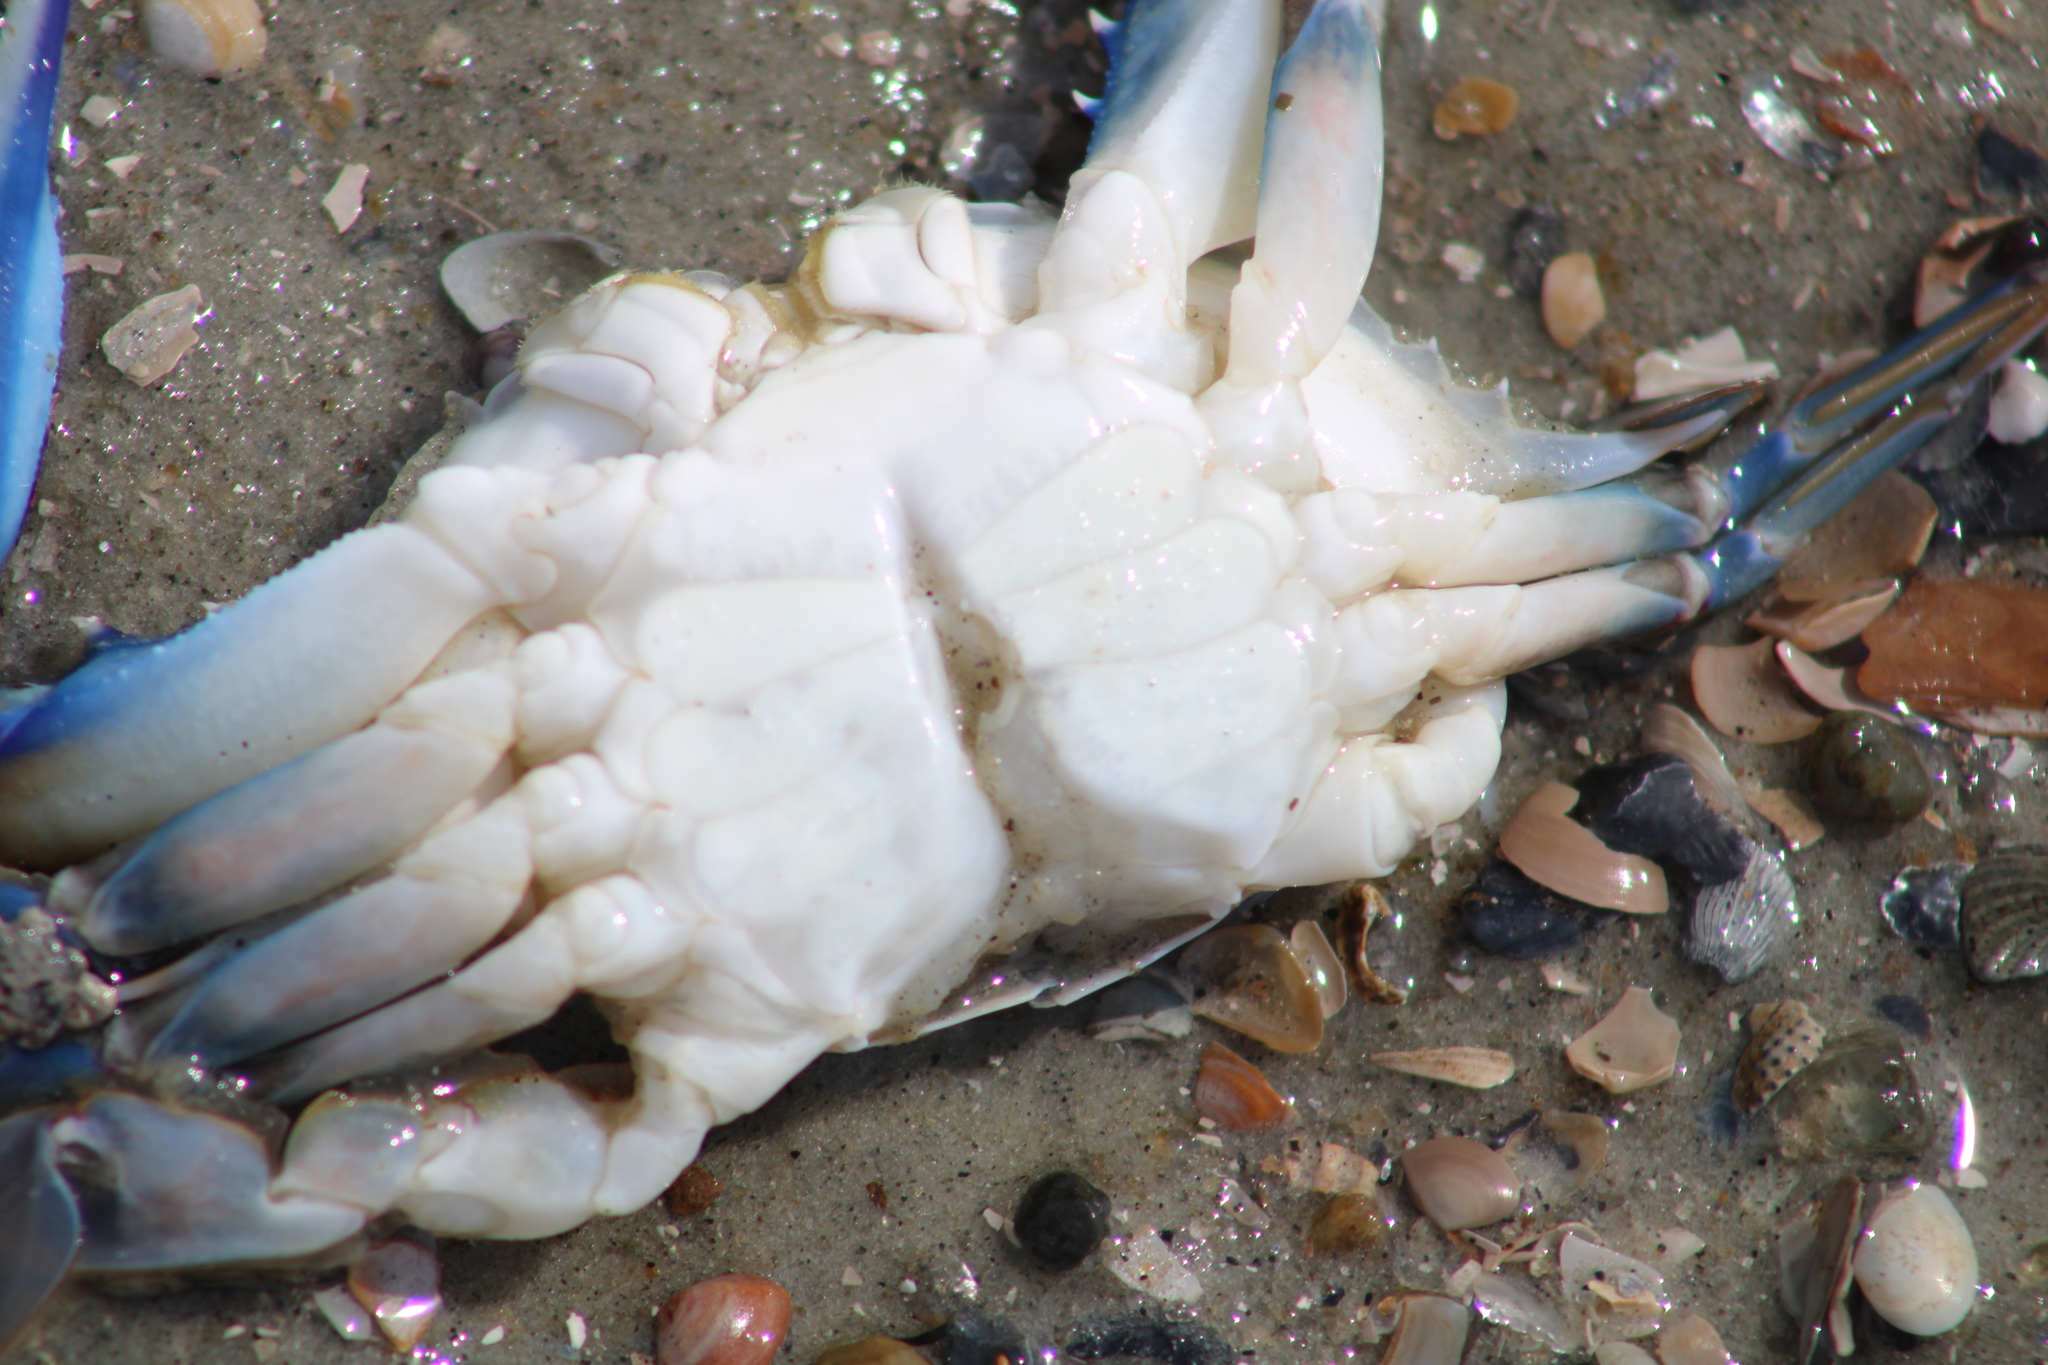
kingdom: Animalia
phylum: Arthropoda
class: Malacostraca
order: Decapoda
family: Portunidae
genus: Callinectes
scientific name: Callinectes sapidus
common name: Blue crab
